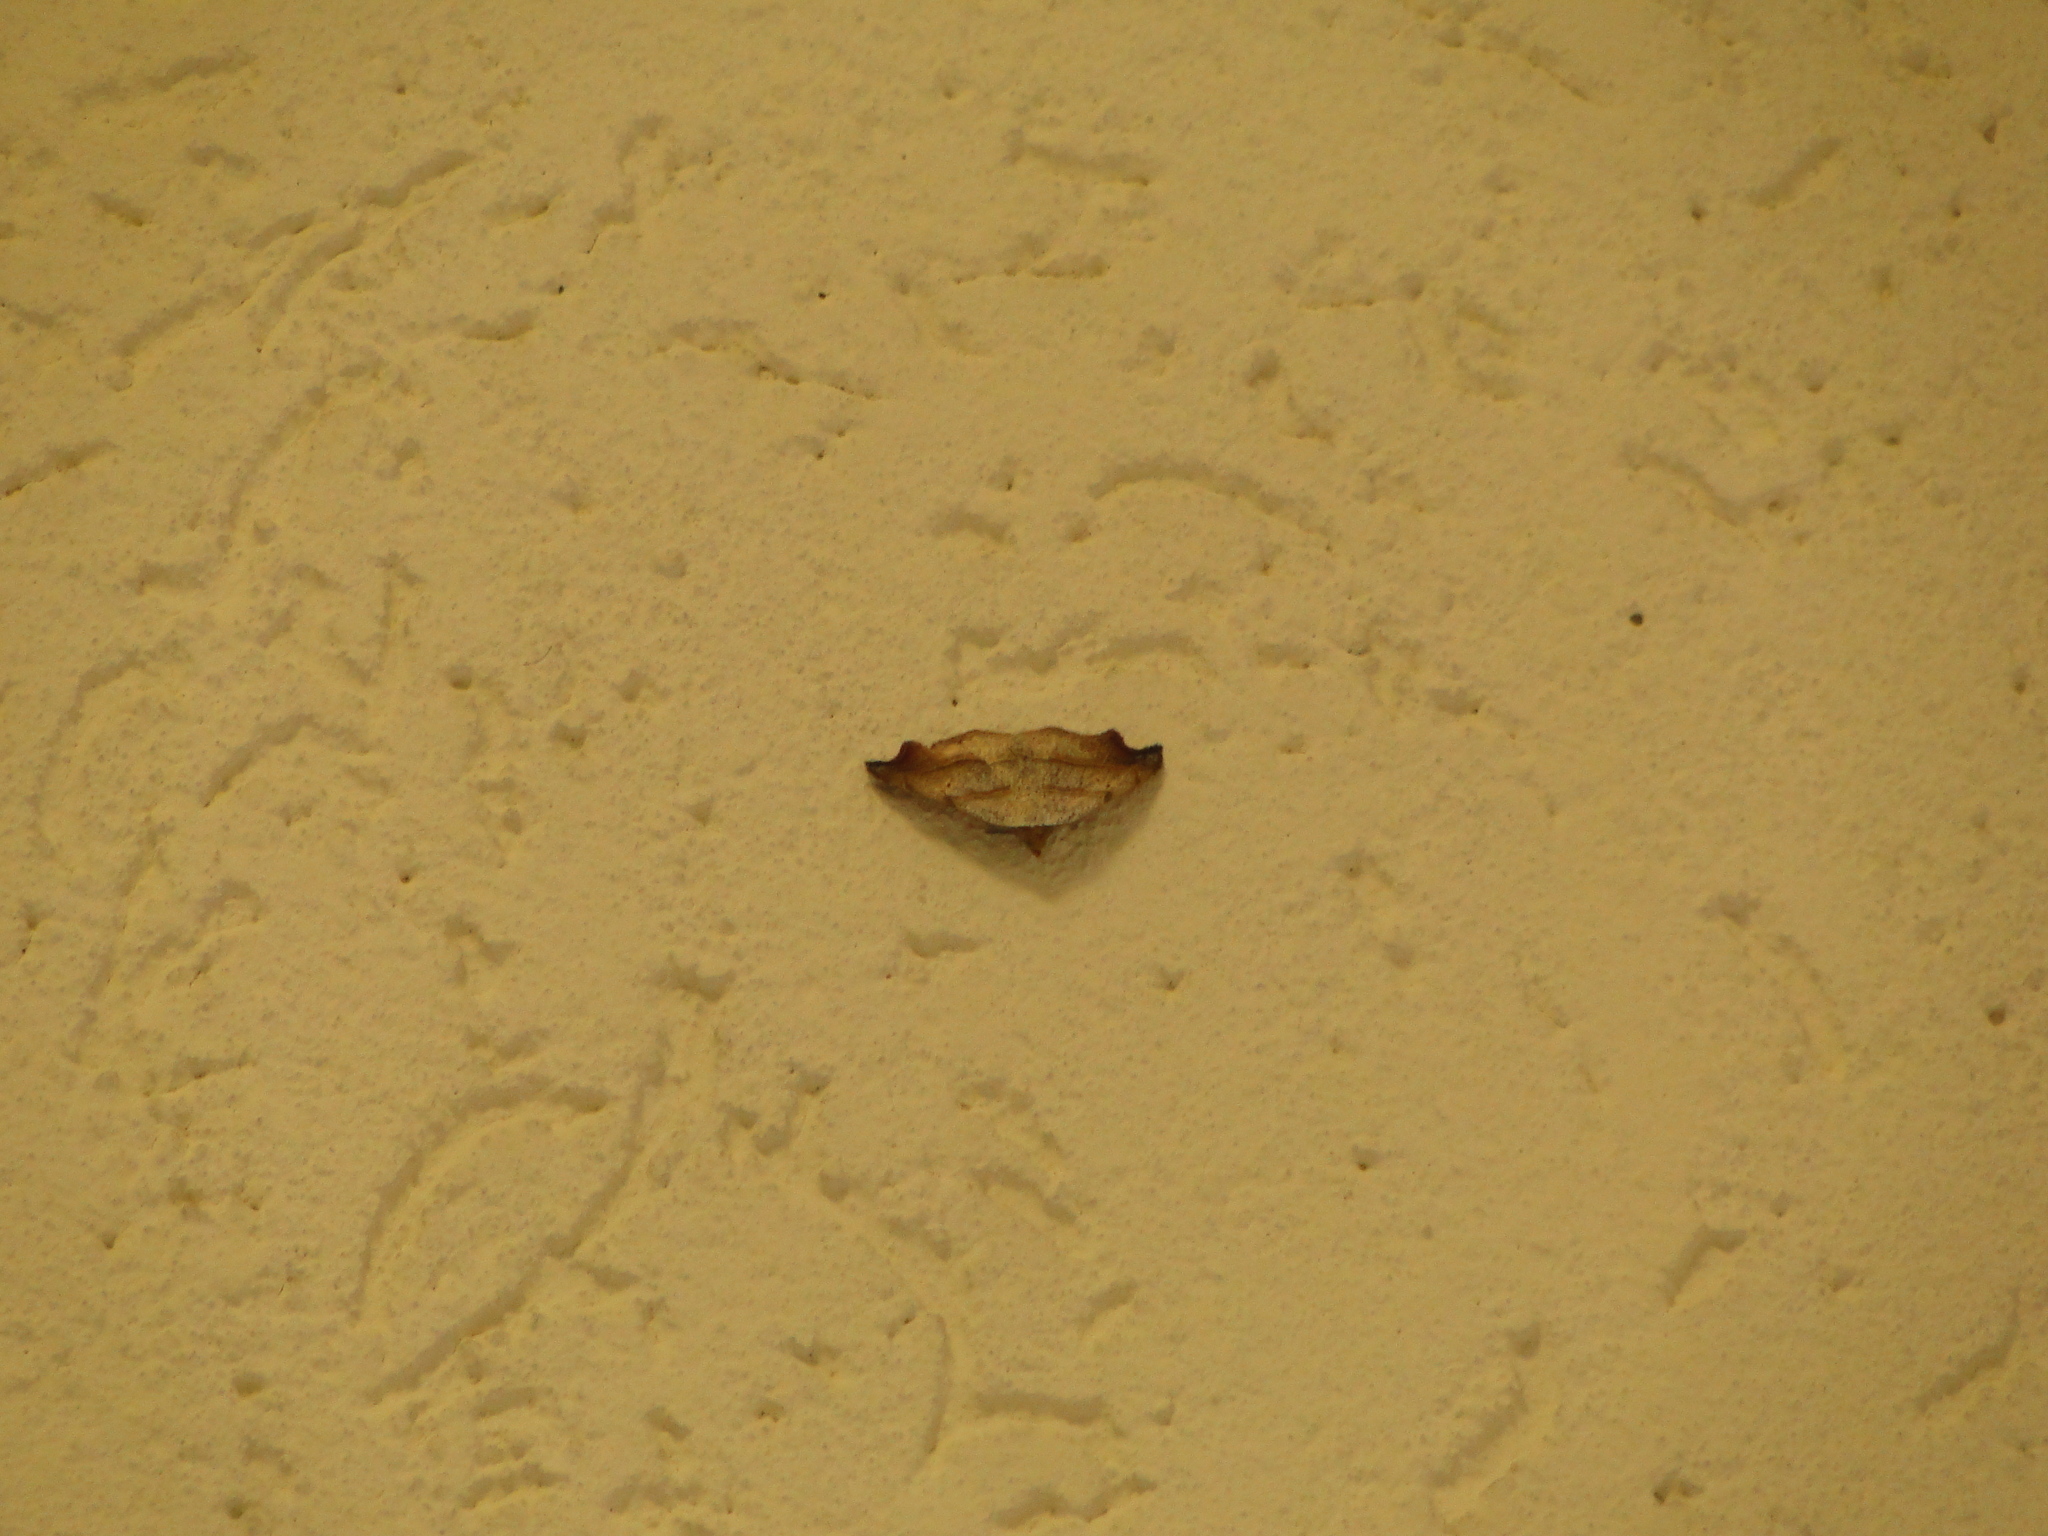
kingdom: Animalia
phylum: Arthropoda
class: Insecta
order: Lepidoptera
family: Erebidae
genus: Laspeyria
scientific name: Laspeyria flexula
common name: Beautiful hook-tip
